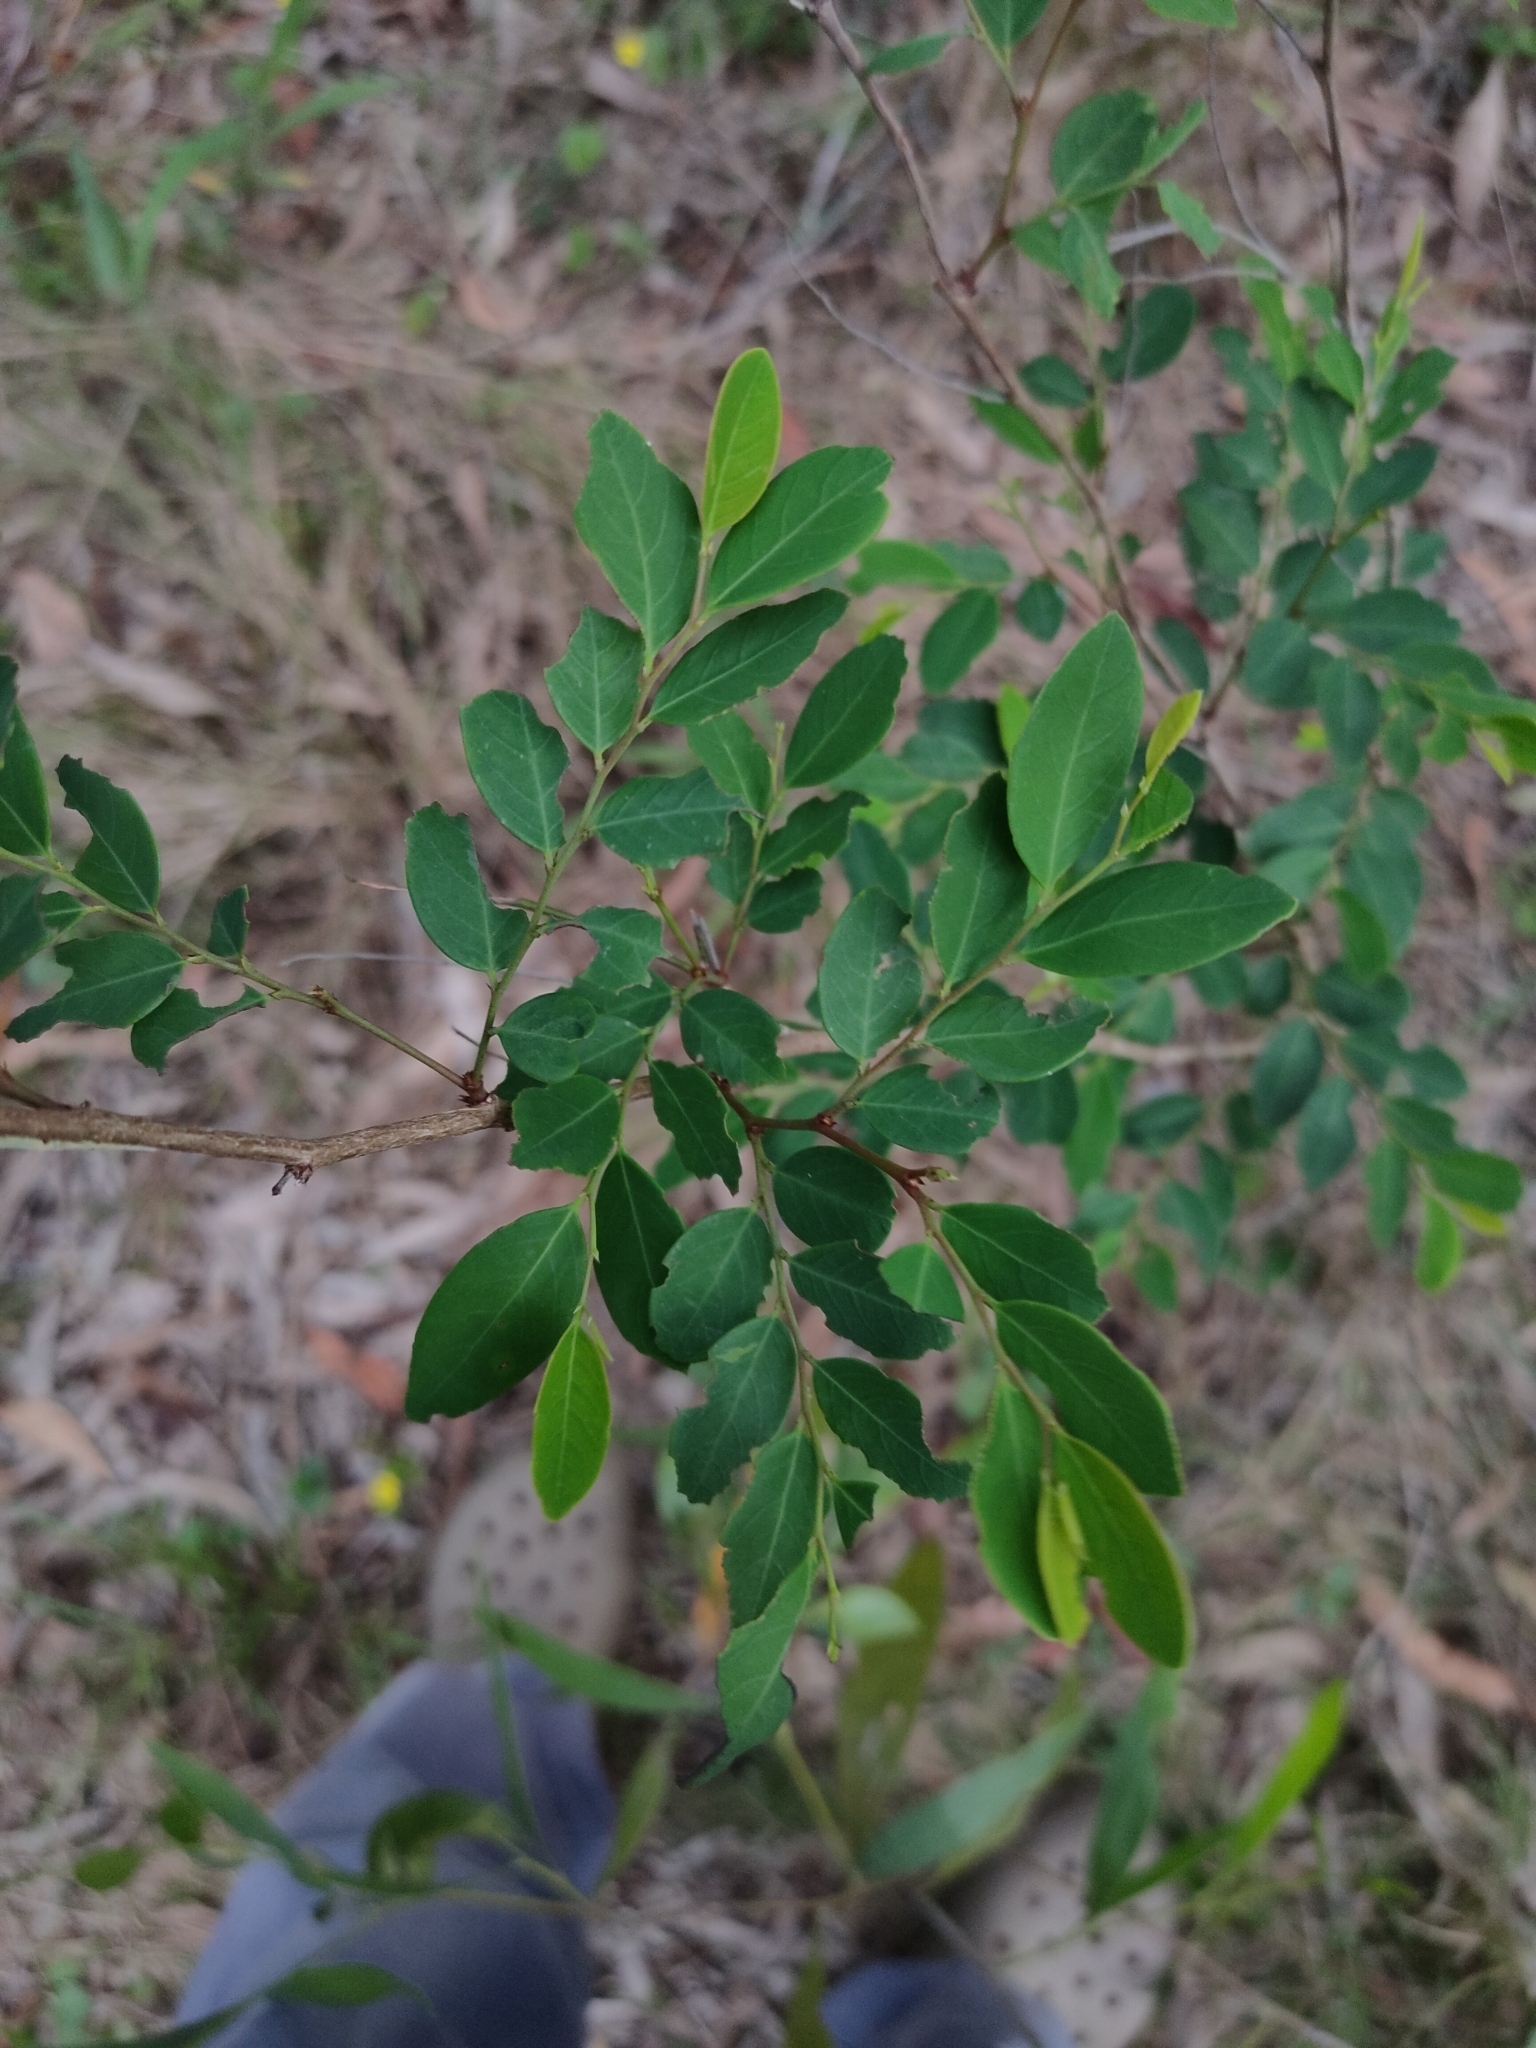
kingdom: Plantae
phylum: Tracheophyta
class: Magnoliopsida
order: Malpighiales
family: Phyllanthaceae
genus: Breynia
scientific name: Breynia oblongifolia
